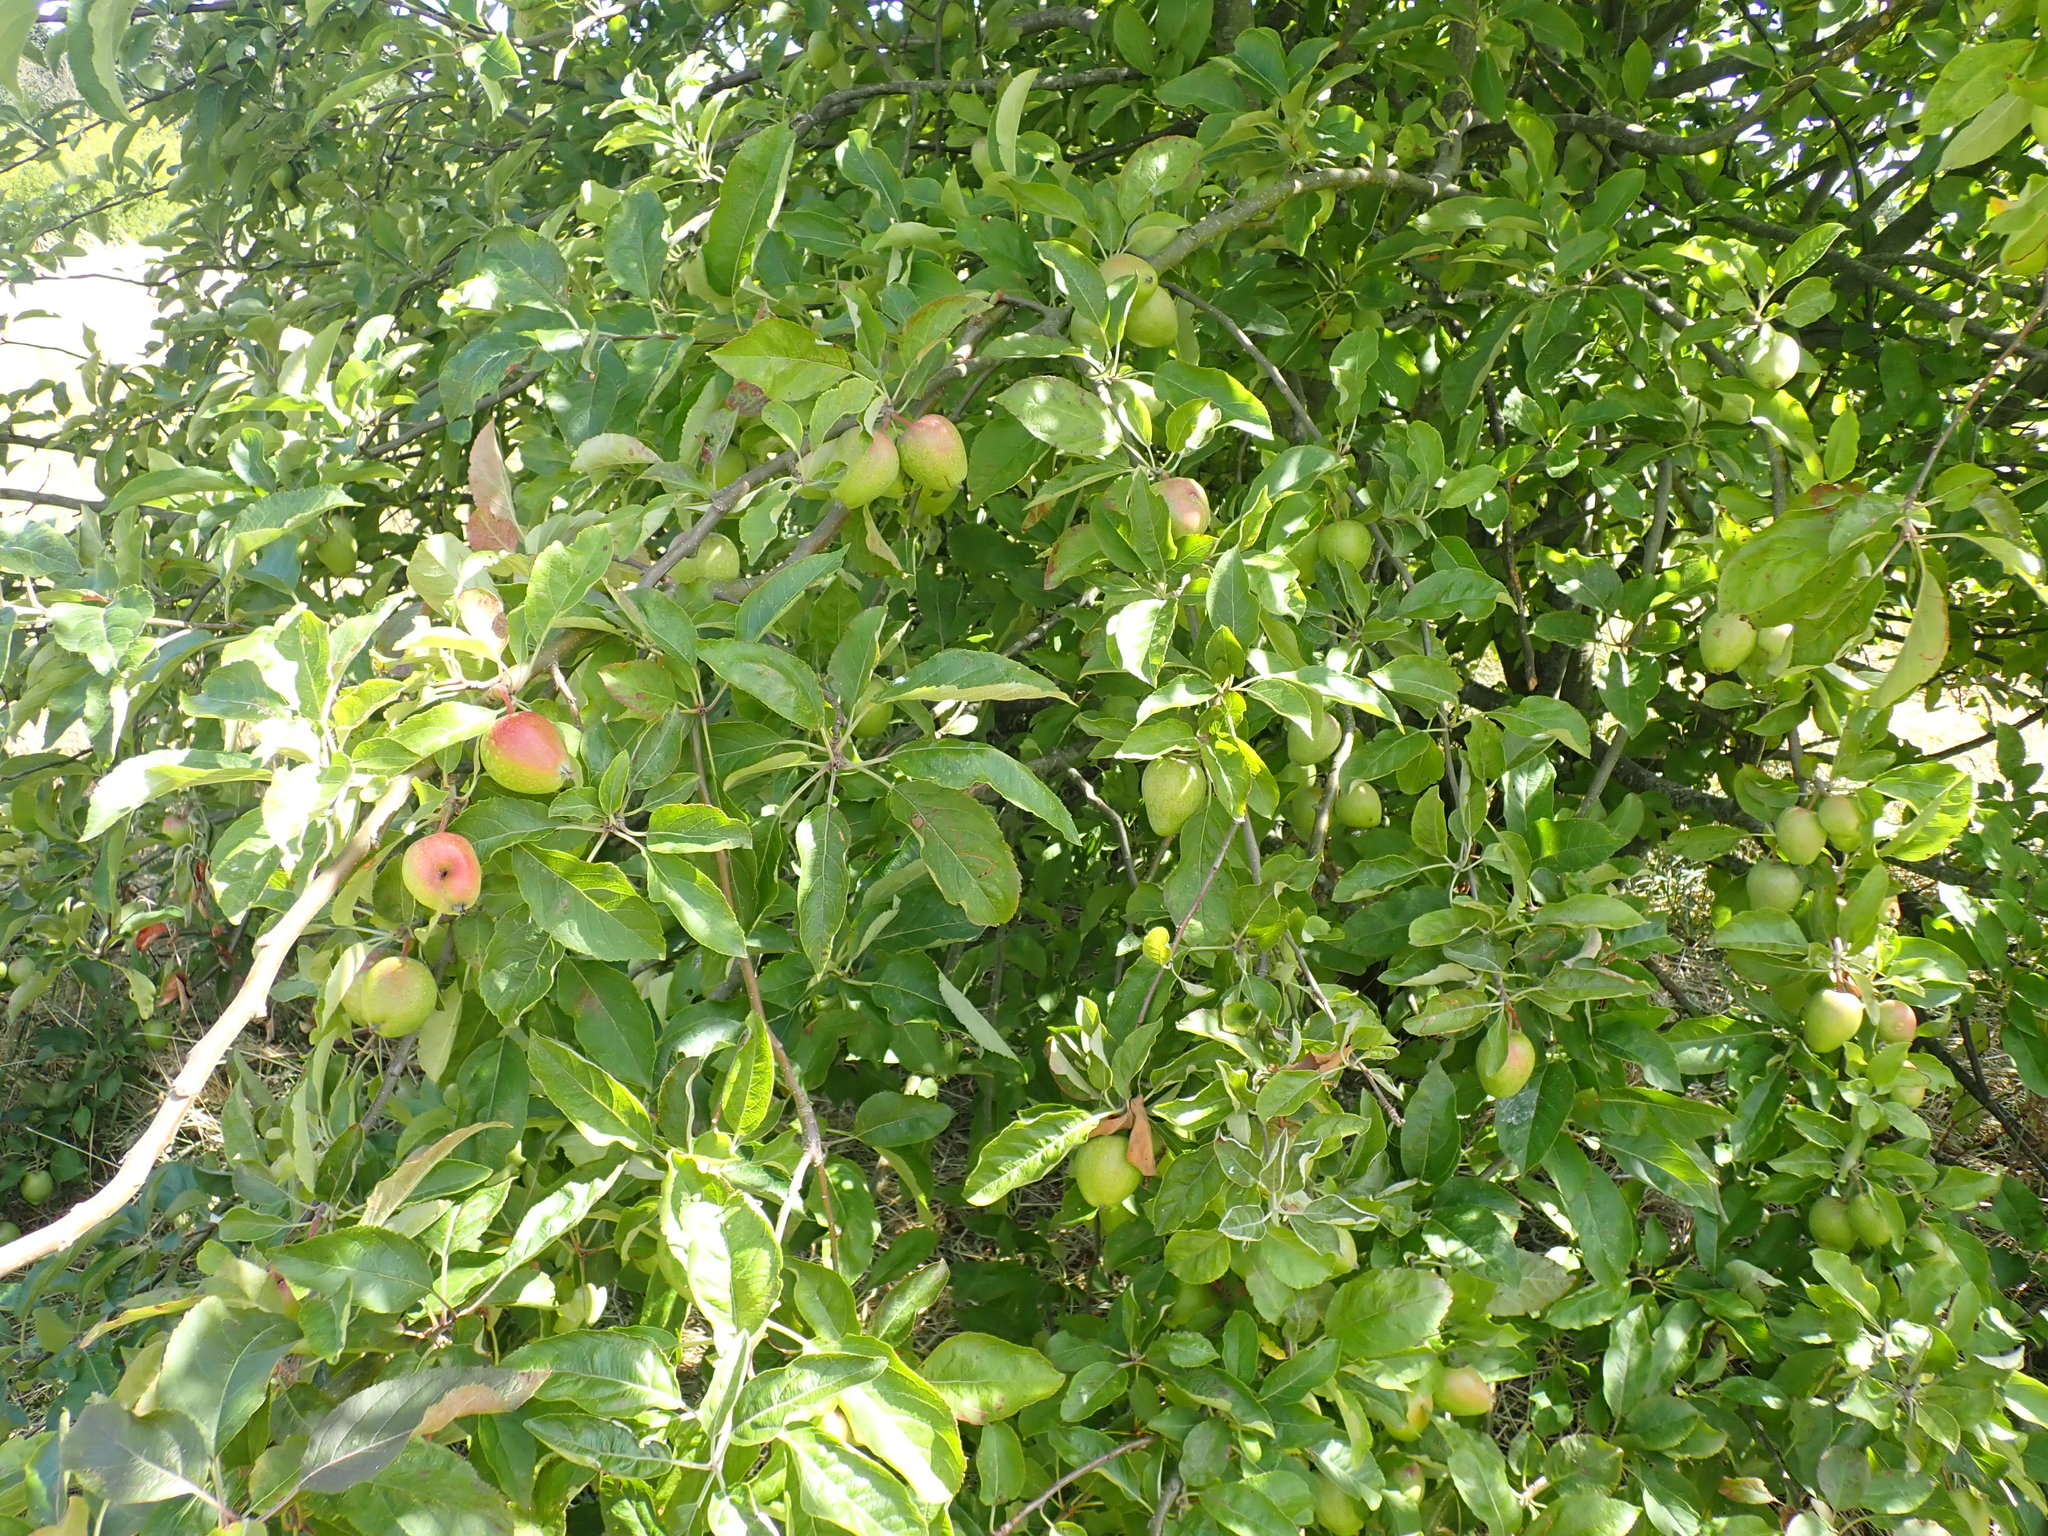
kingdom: Plantae
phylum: Tracheophyta
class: Magnoliopsida
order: Rosales
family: Rosaceae
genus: Malus
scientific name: Malus domestica
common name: Apple
